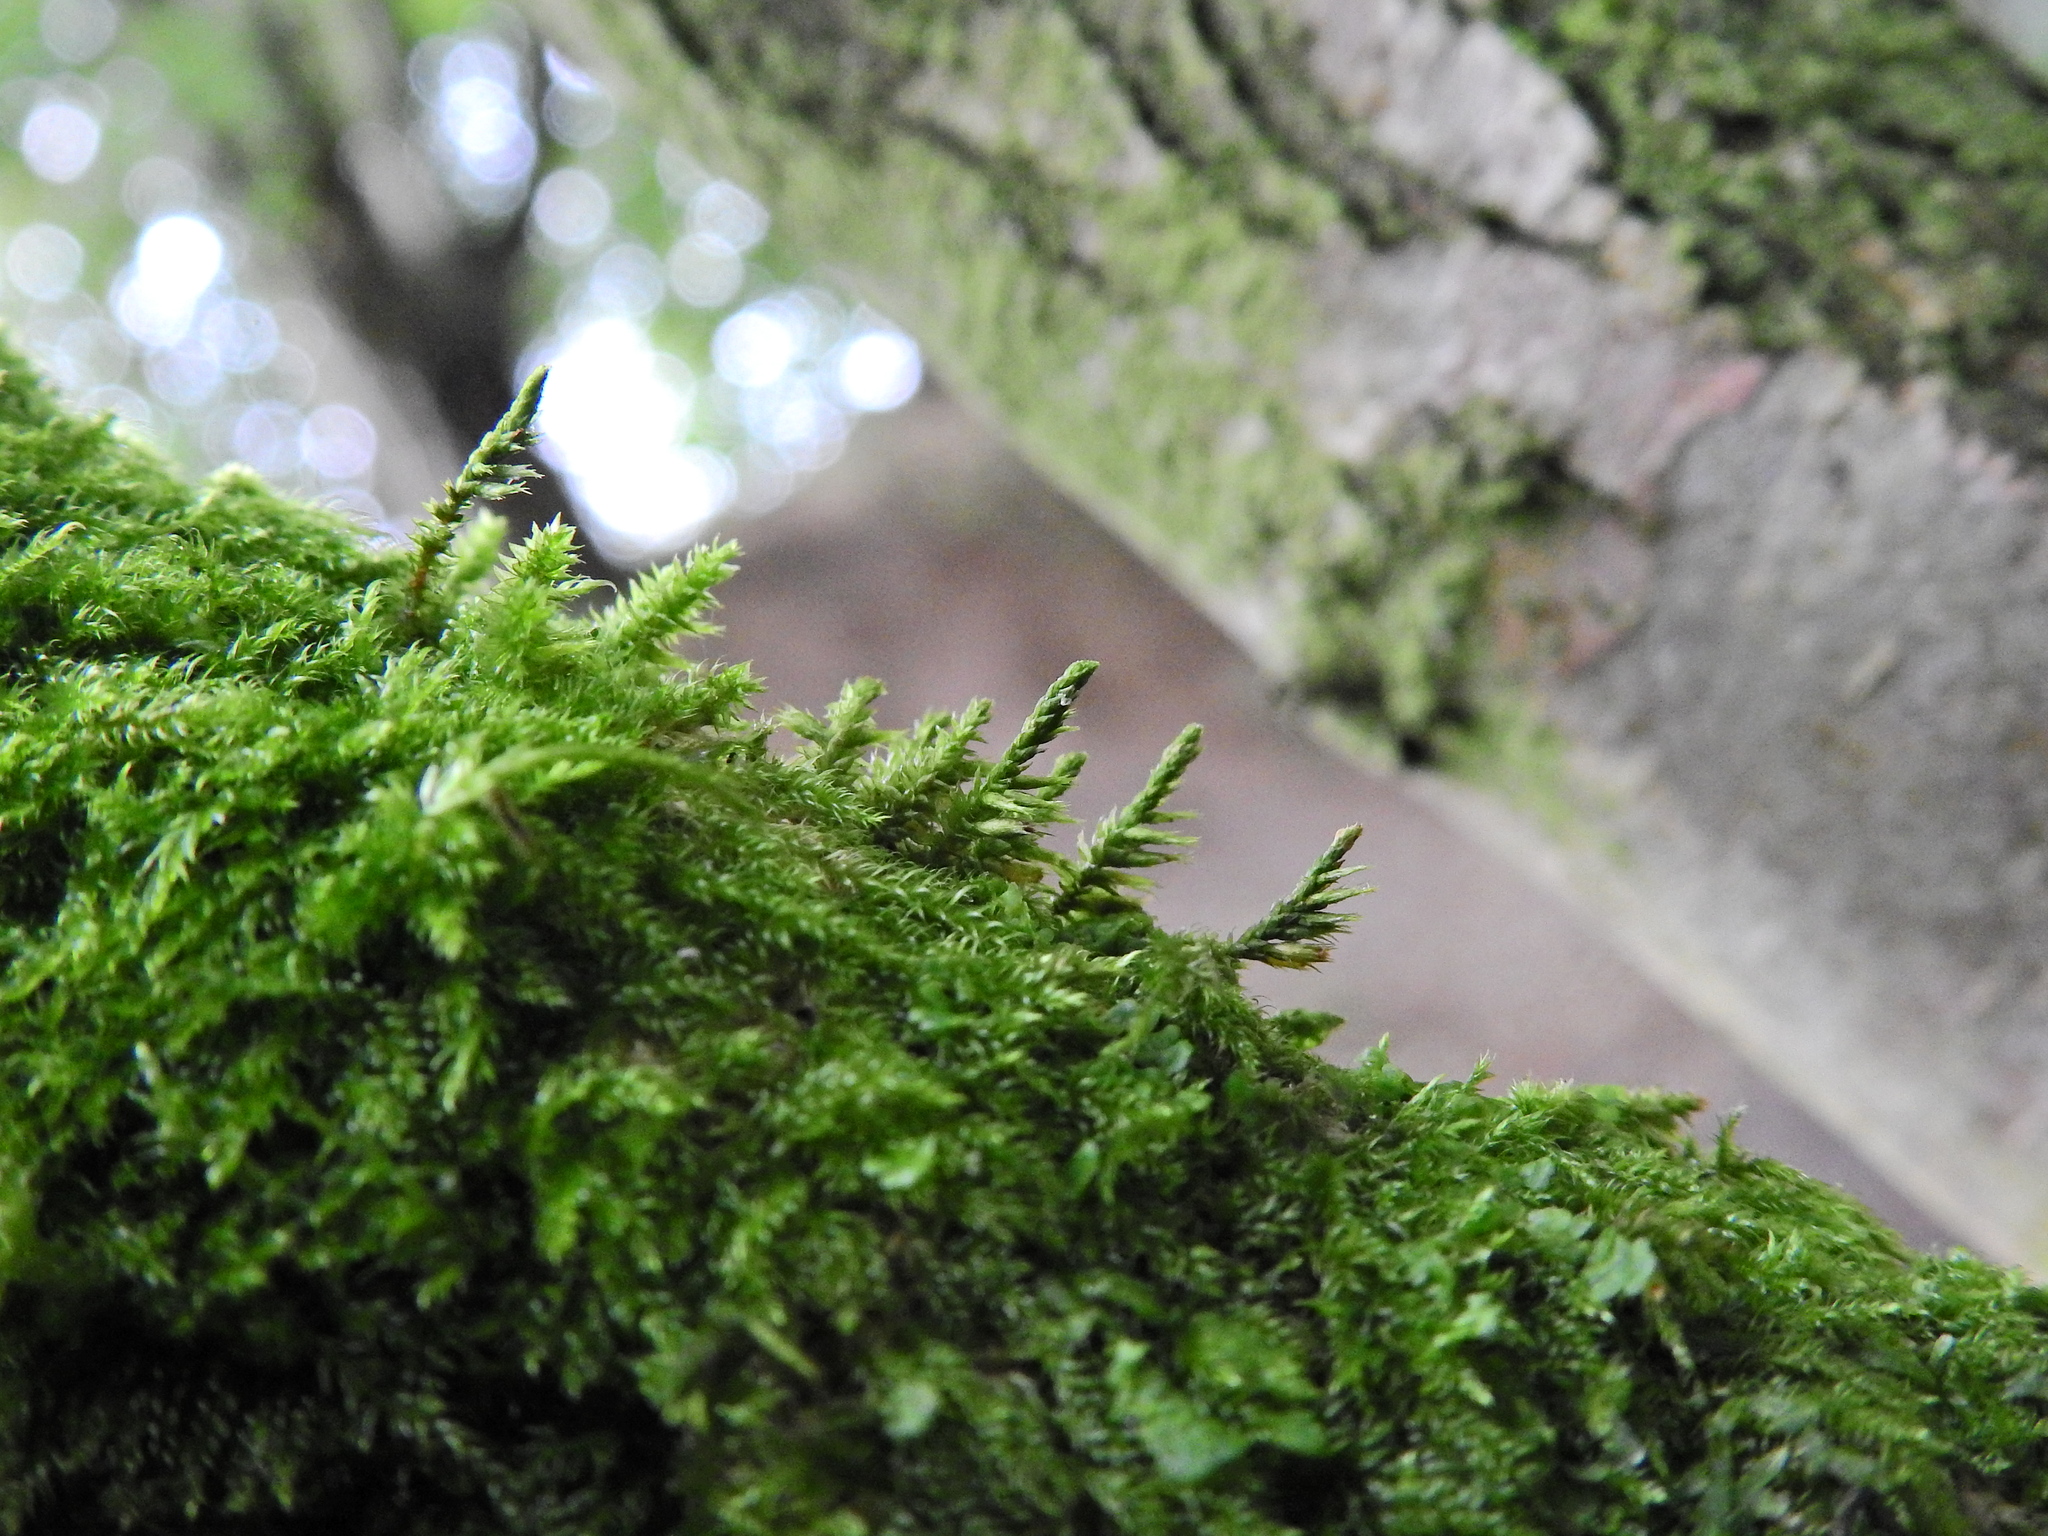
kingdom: Plantae
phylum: Bryophyta
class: Bryopsida
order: Hypnales
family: Cryphaeaceae
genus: Cryphaea
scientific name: Cryphaea heteromalla
